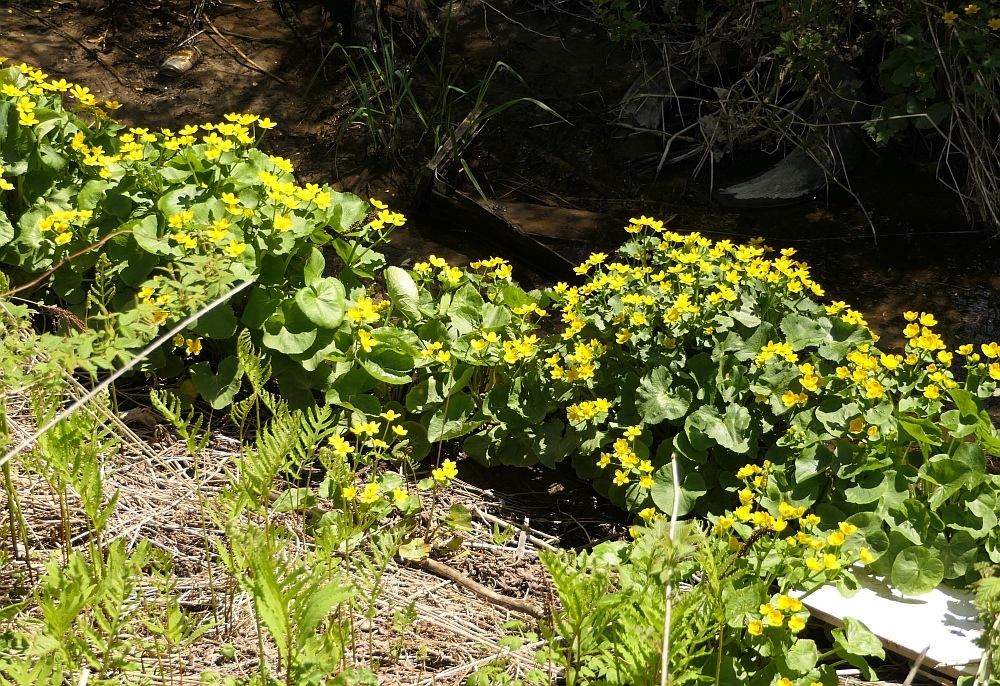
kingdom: Plantae
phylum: Tracheophyta
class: Magnoliopsida
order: Ranunculales
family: Ranunculaceae
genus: Caltha
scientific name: Caltha palustris
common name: Marsh marigold
